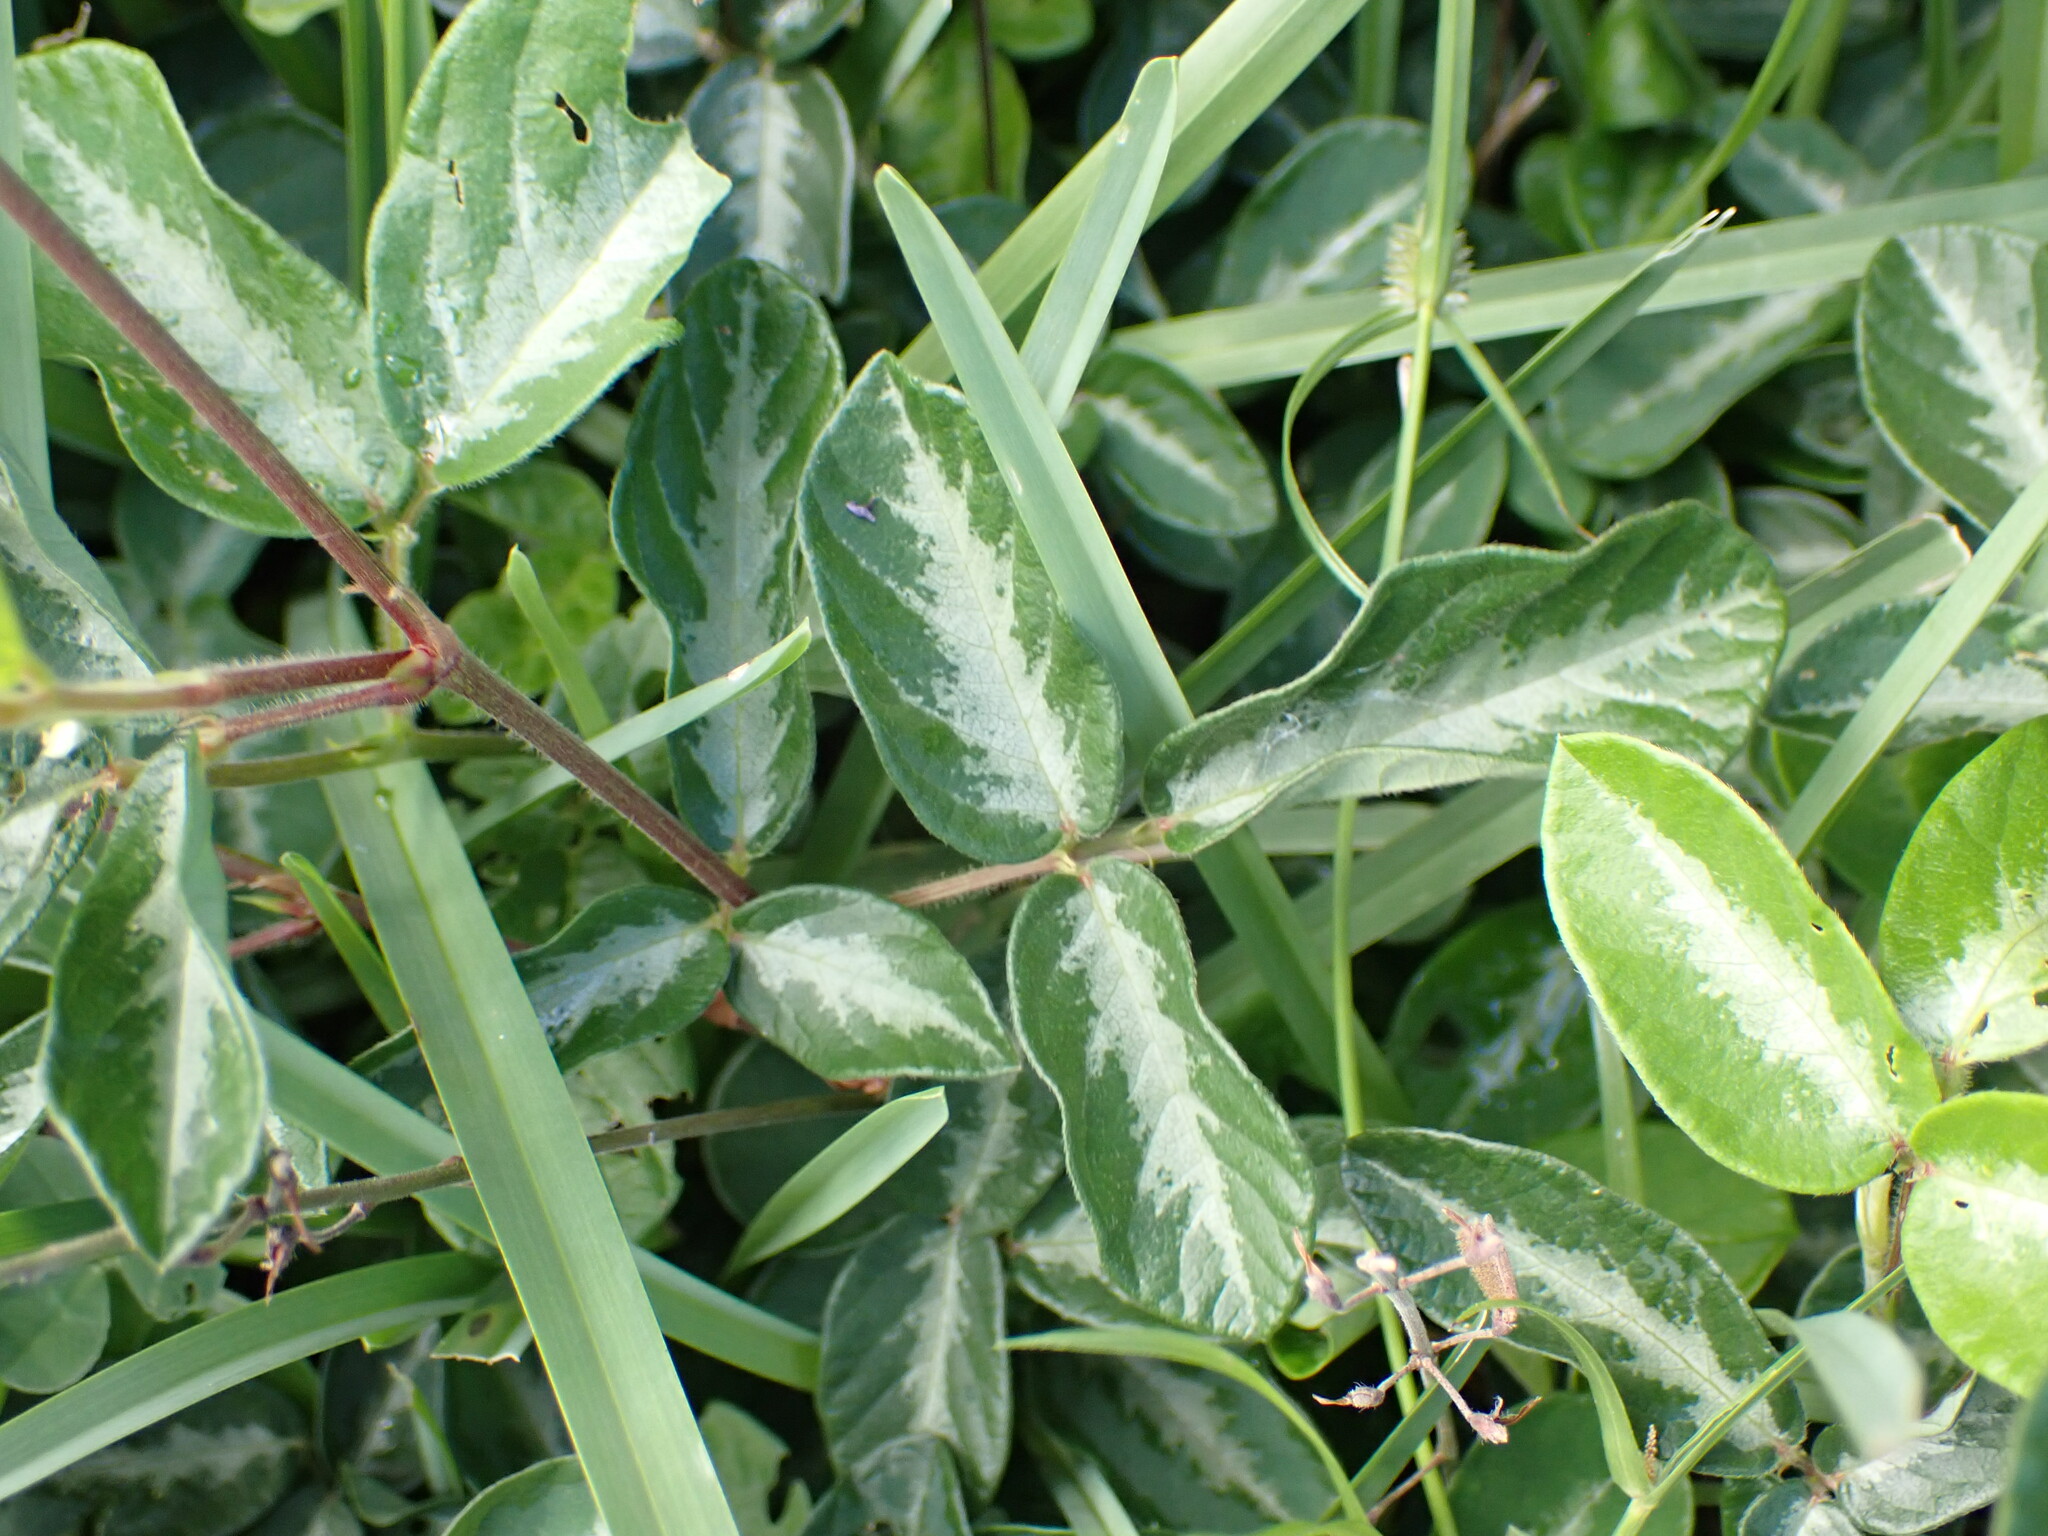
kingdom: Plantae
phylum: Tracheophyta
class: Magnoliopsida
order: Fabales
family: Fabaceae
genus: Desmodium
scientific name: Desmodium incanum
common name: Tickclover
